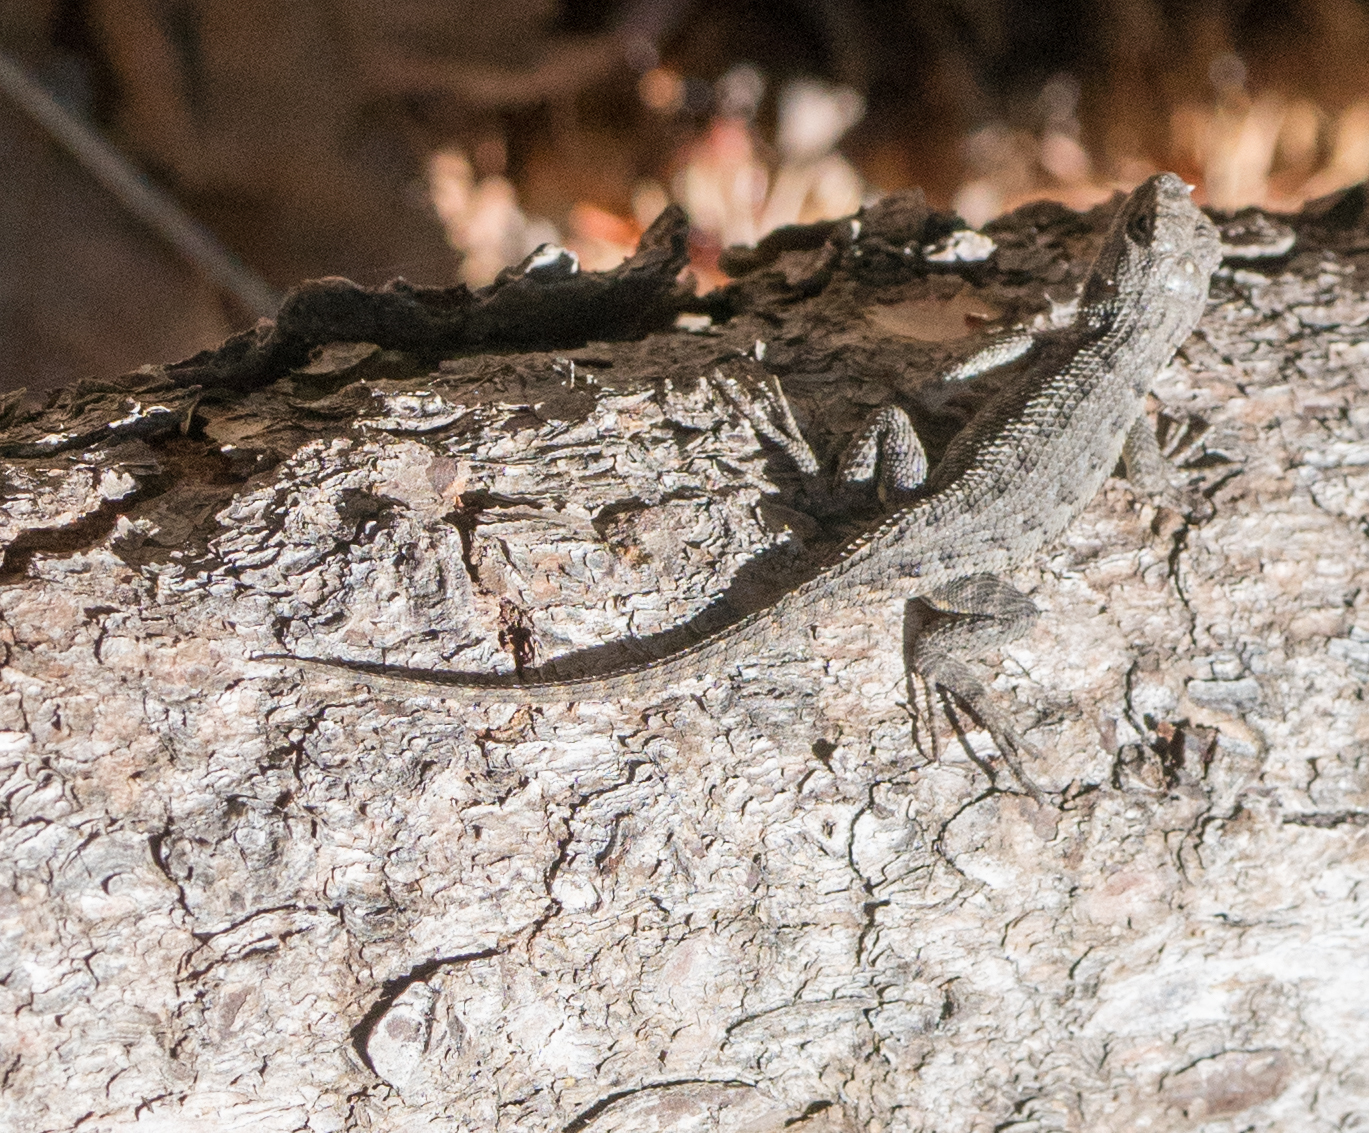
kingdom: Animalia
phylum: Chordata
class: Squamata
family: Phrynosomatidae
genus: Sceloporus
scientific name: Sceloporus occidentalis
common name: Western fence lizard
